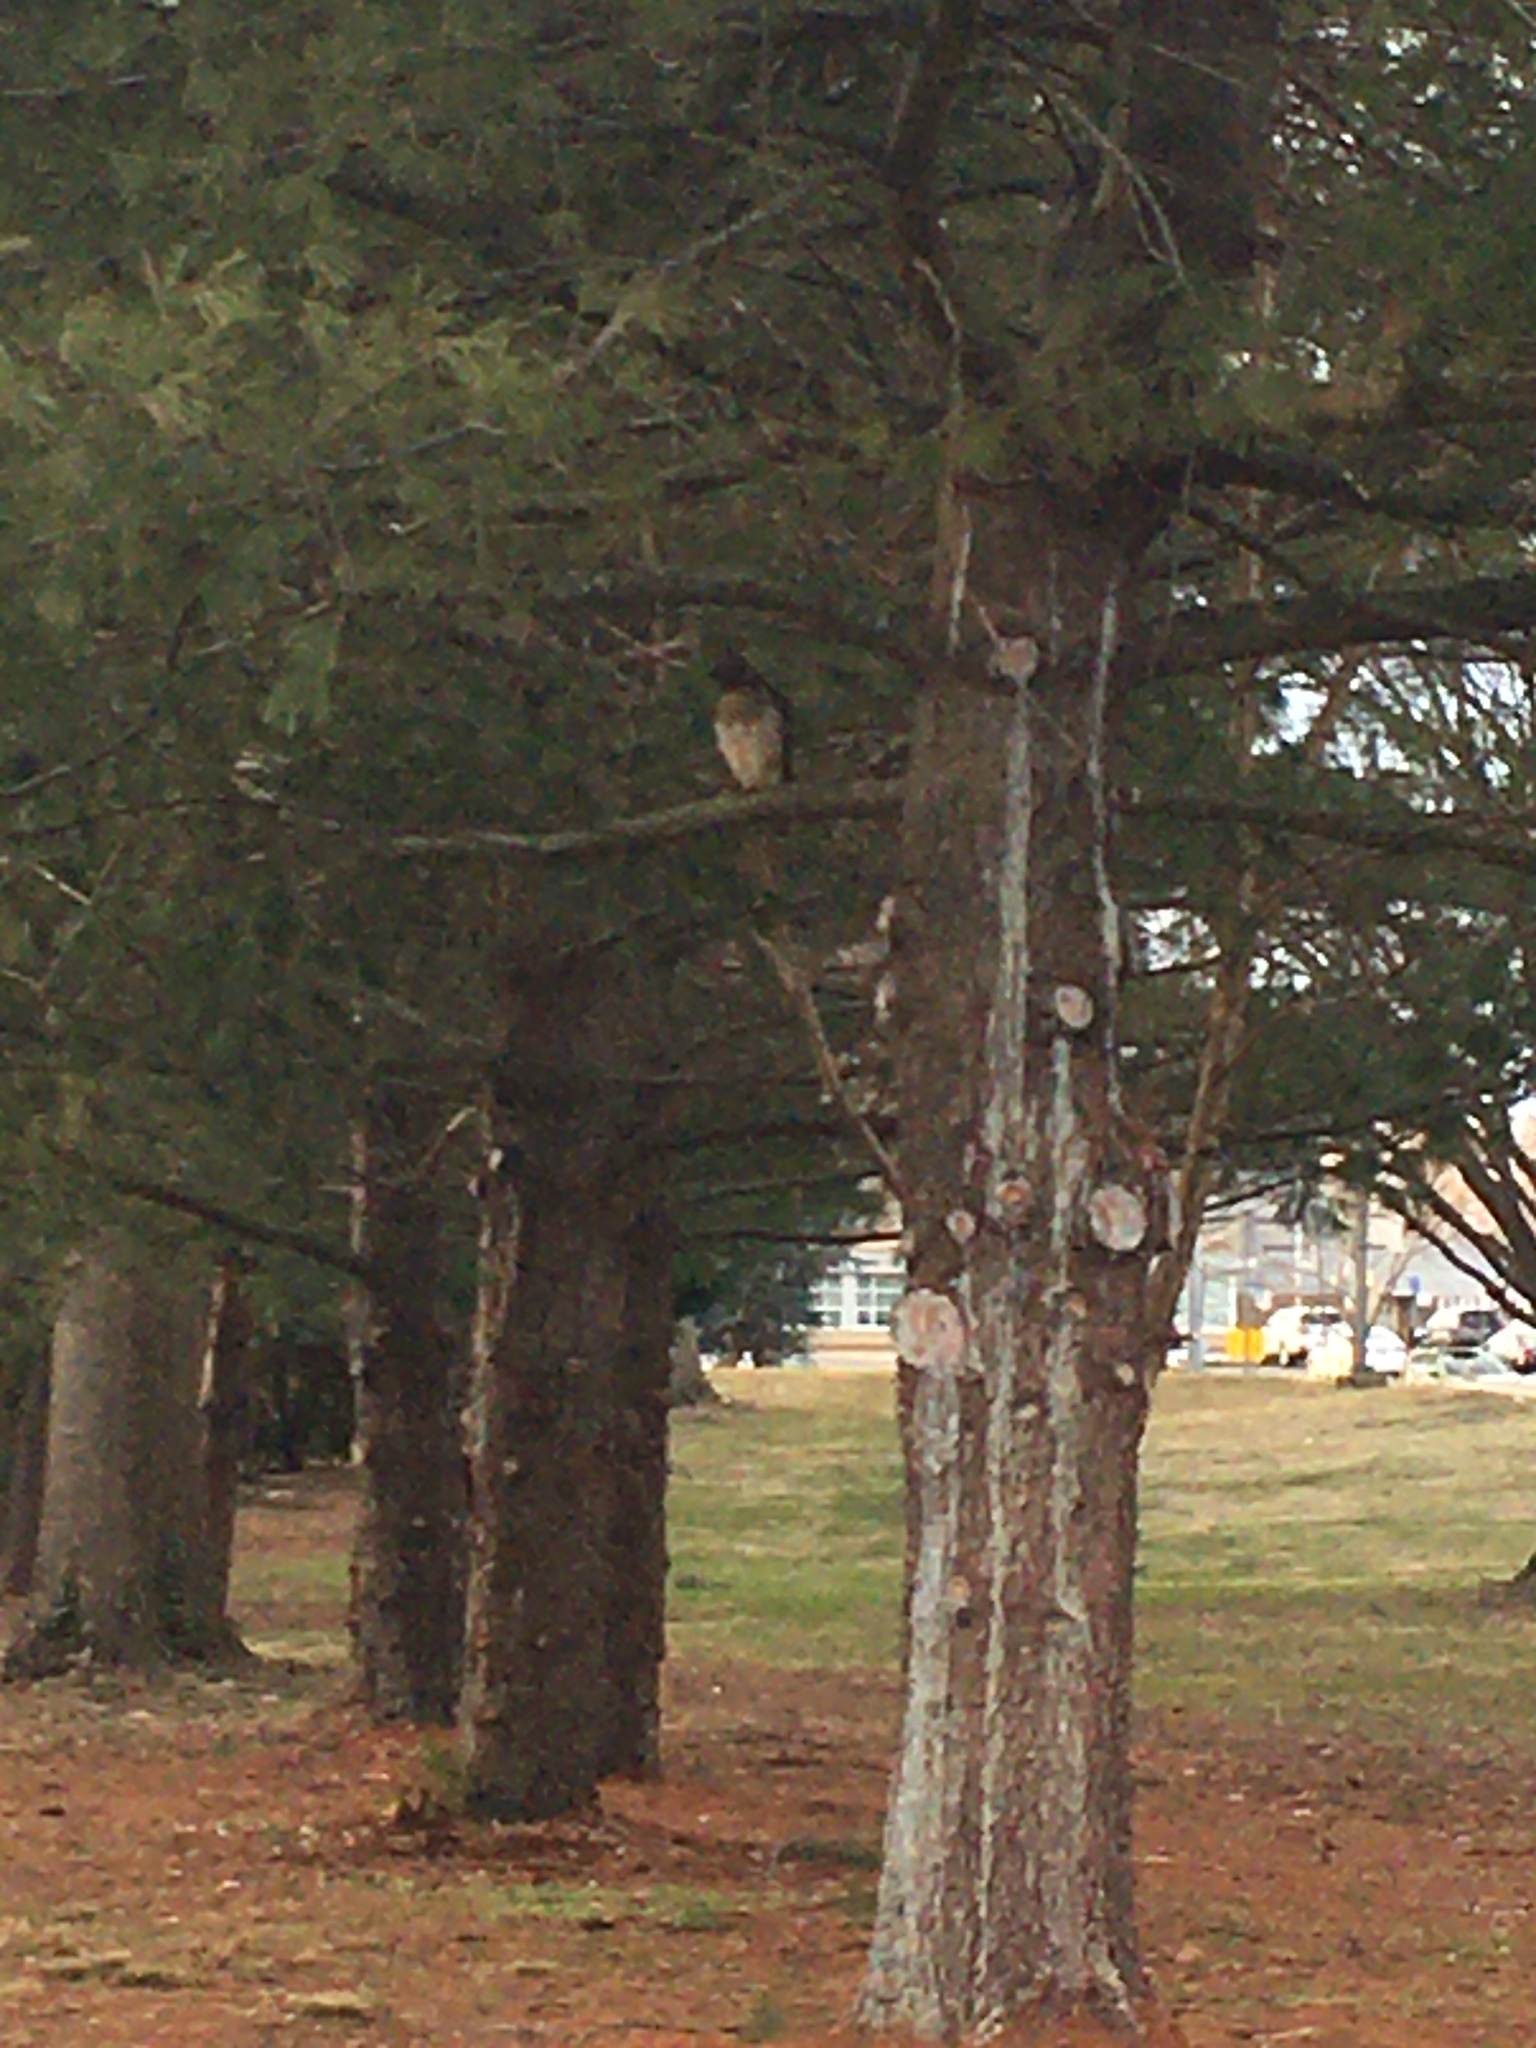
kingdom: Animalia
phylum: Chordata
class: Aves
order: Accipitriformes
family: Accipitridae
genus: Buteo
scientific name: Buteo lineatus
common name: Red-shouldered hawk
